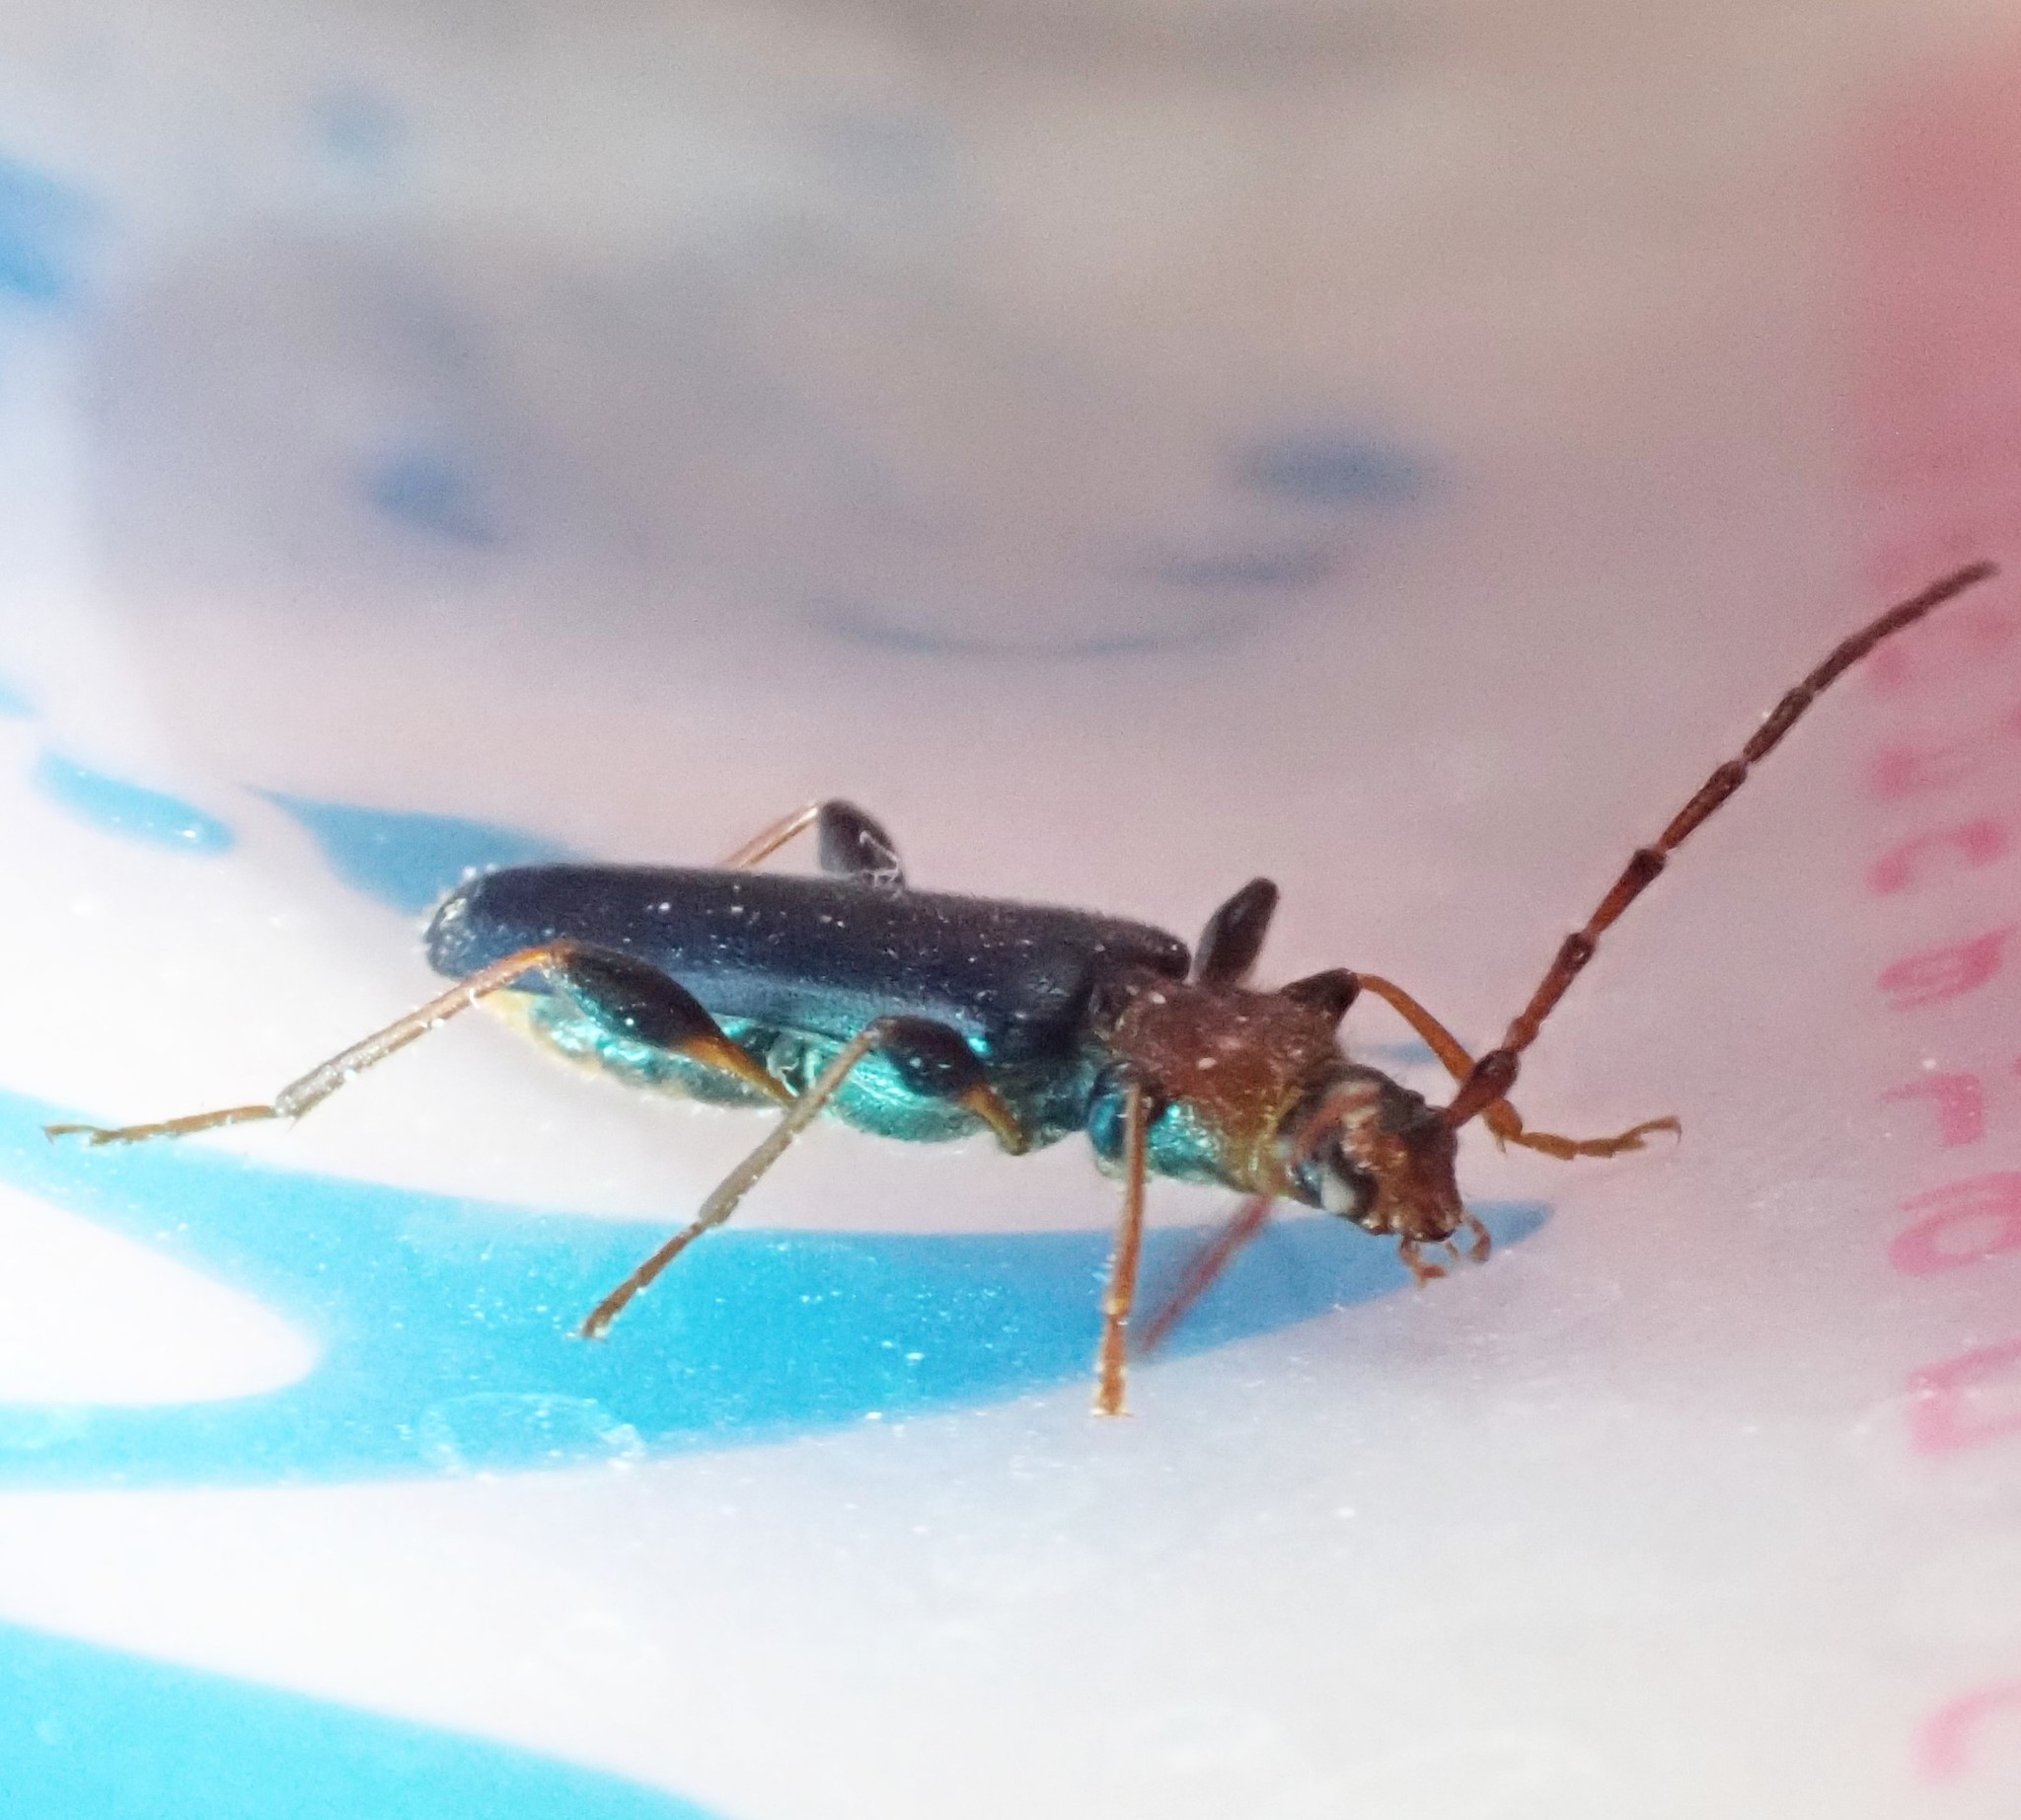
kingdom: Animalia
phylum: Arthropoda
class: Insecta
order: Coleoptera
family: Cerambycidae
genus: Phymatodes
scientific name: Phymatodes testaceus
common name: Long-horned beetle
